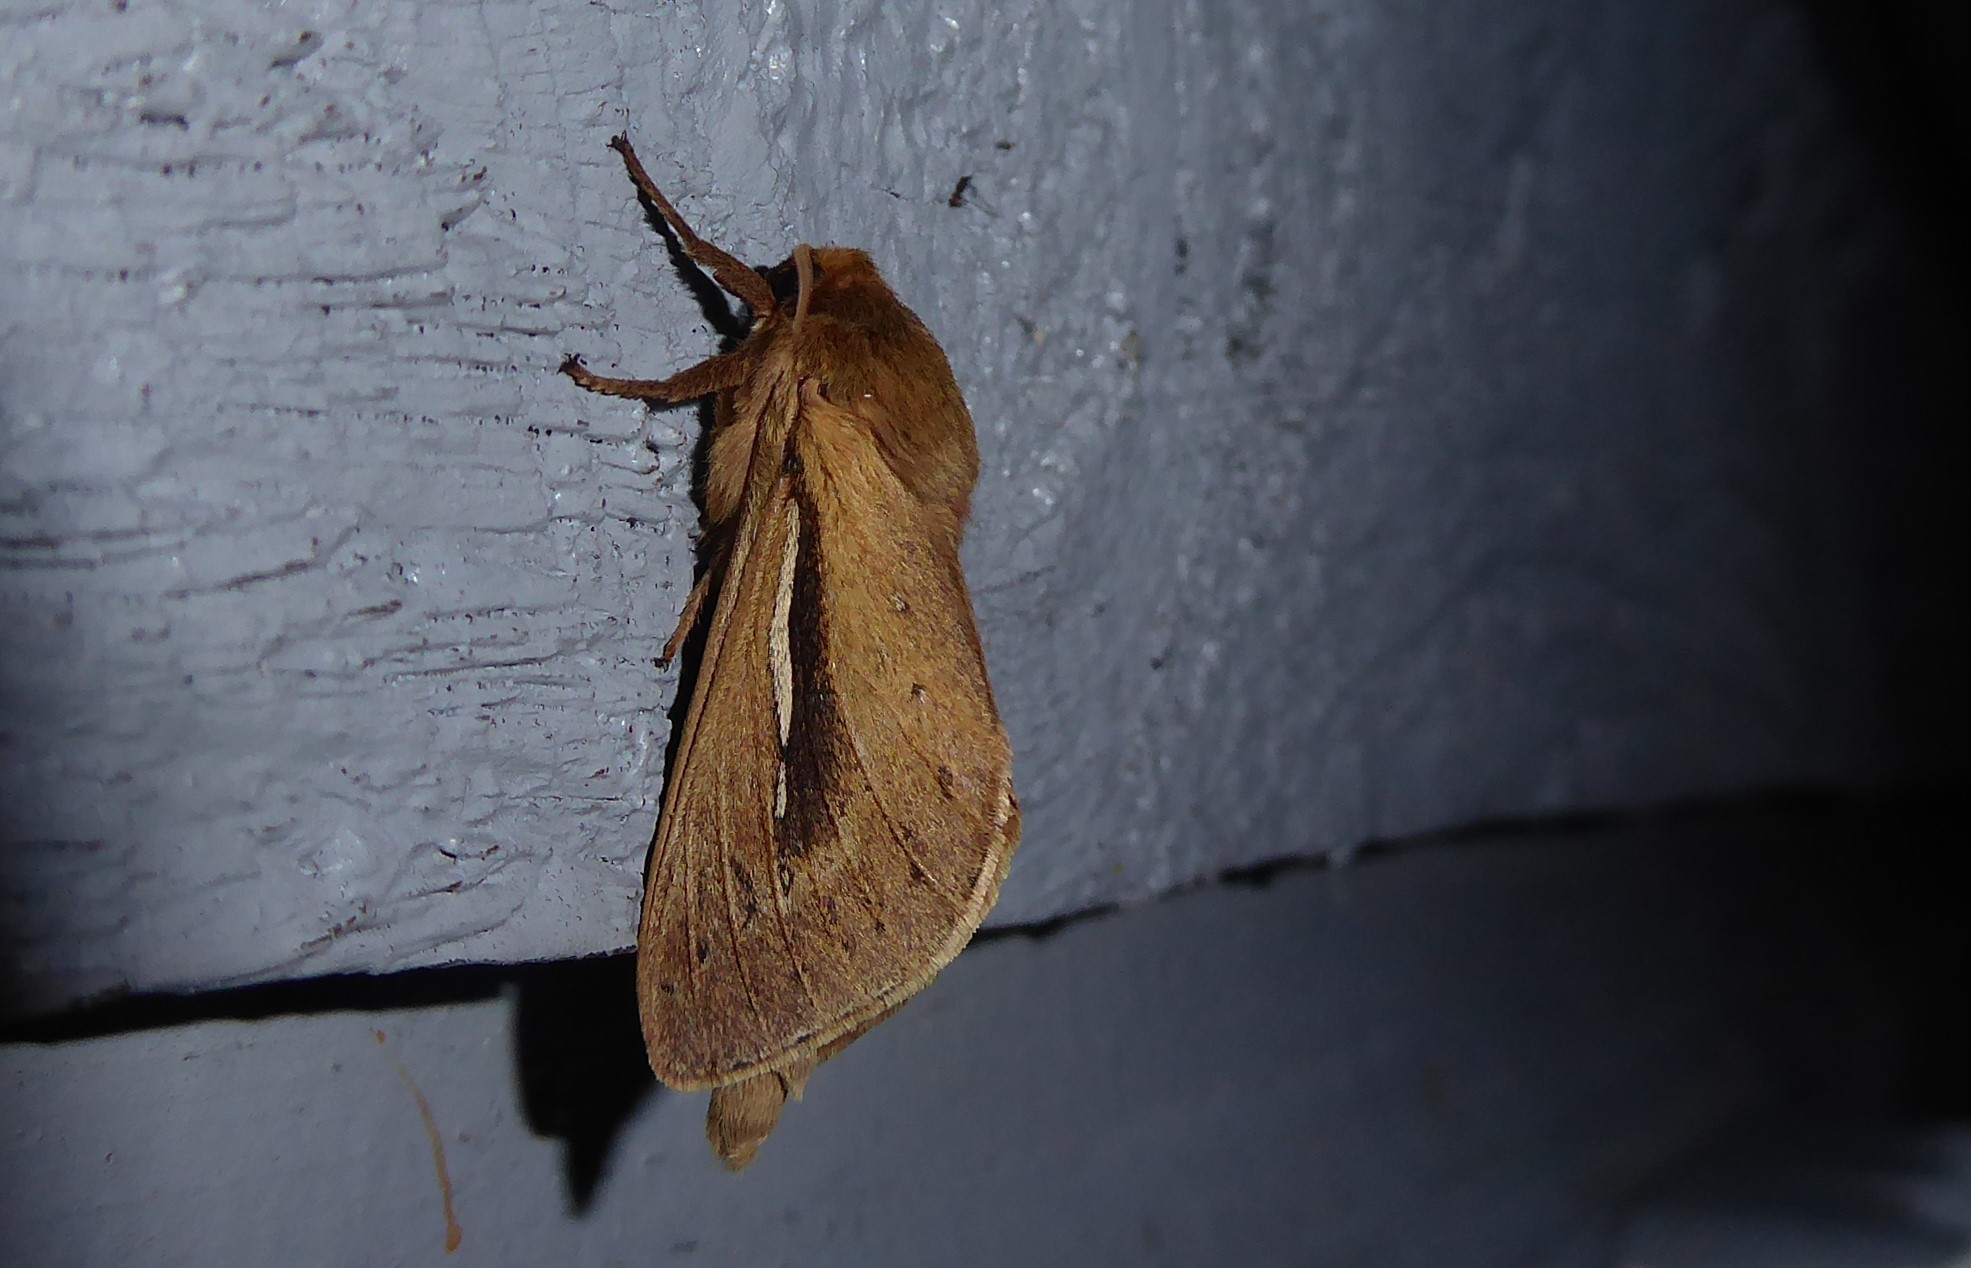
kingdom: Animalia
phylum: Arthropoda
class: Insecta
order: Lepidoptera
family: Hepialidae
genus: Wiseana
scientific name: Wiseana umbraculatus
